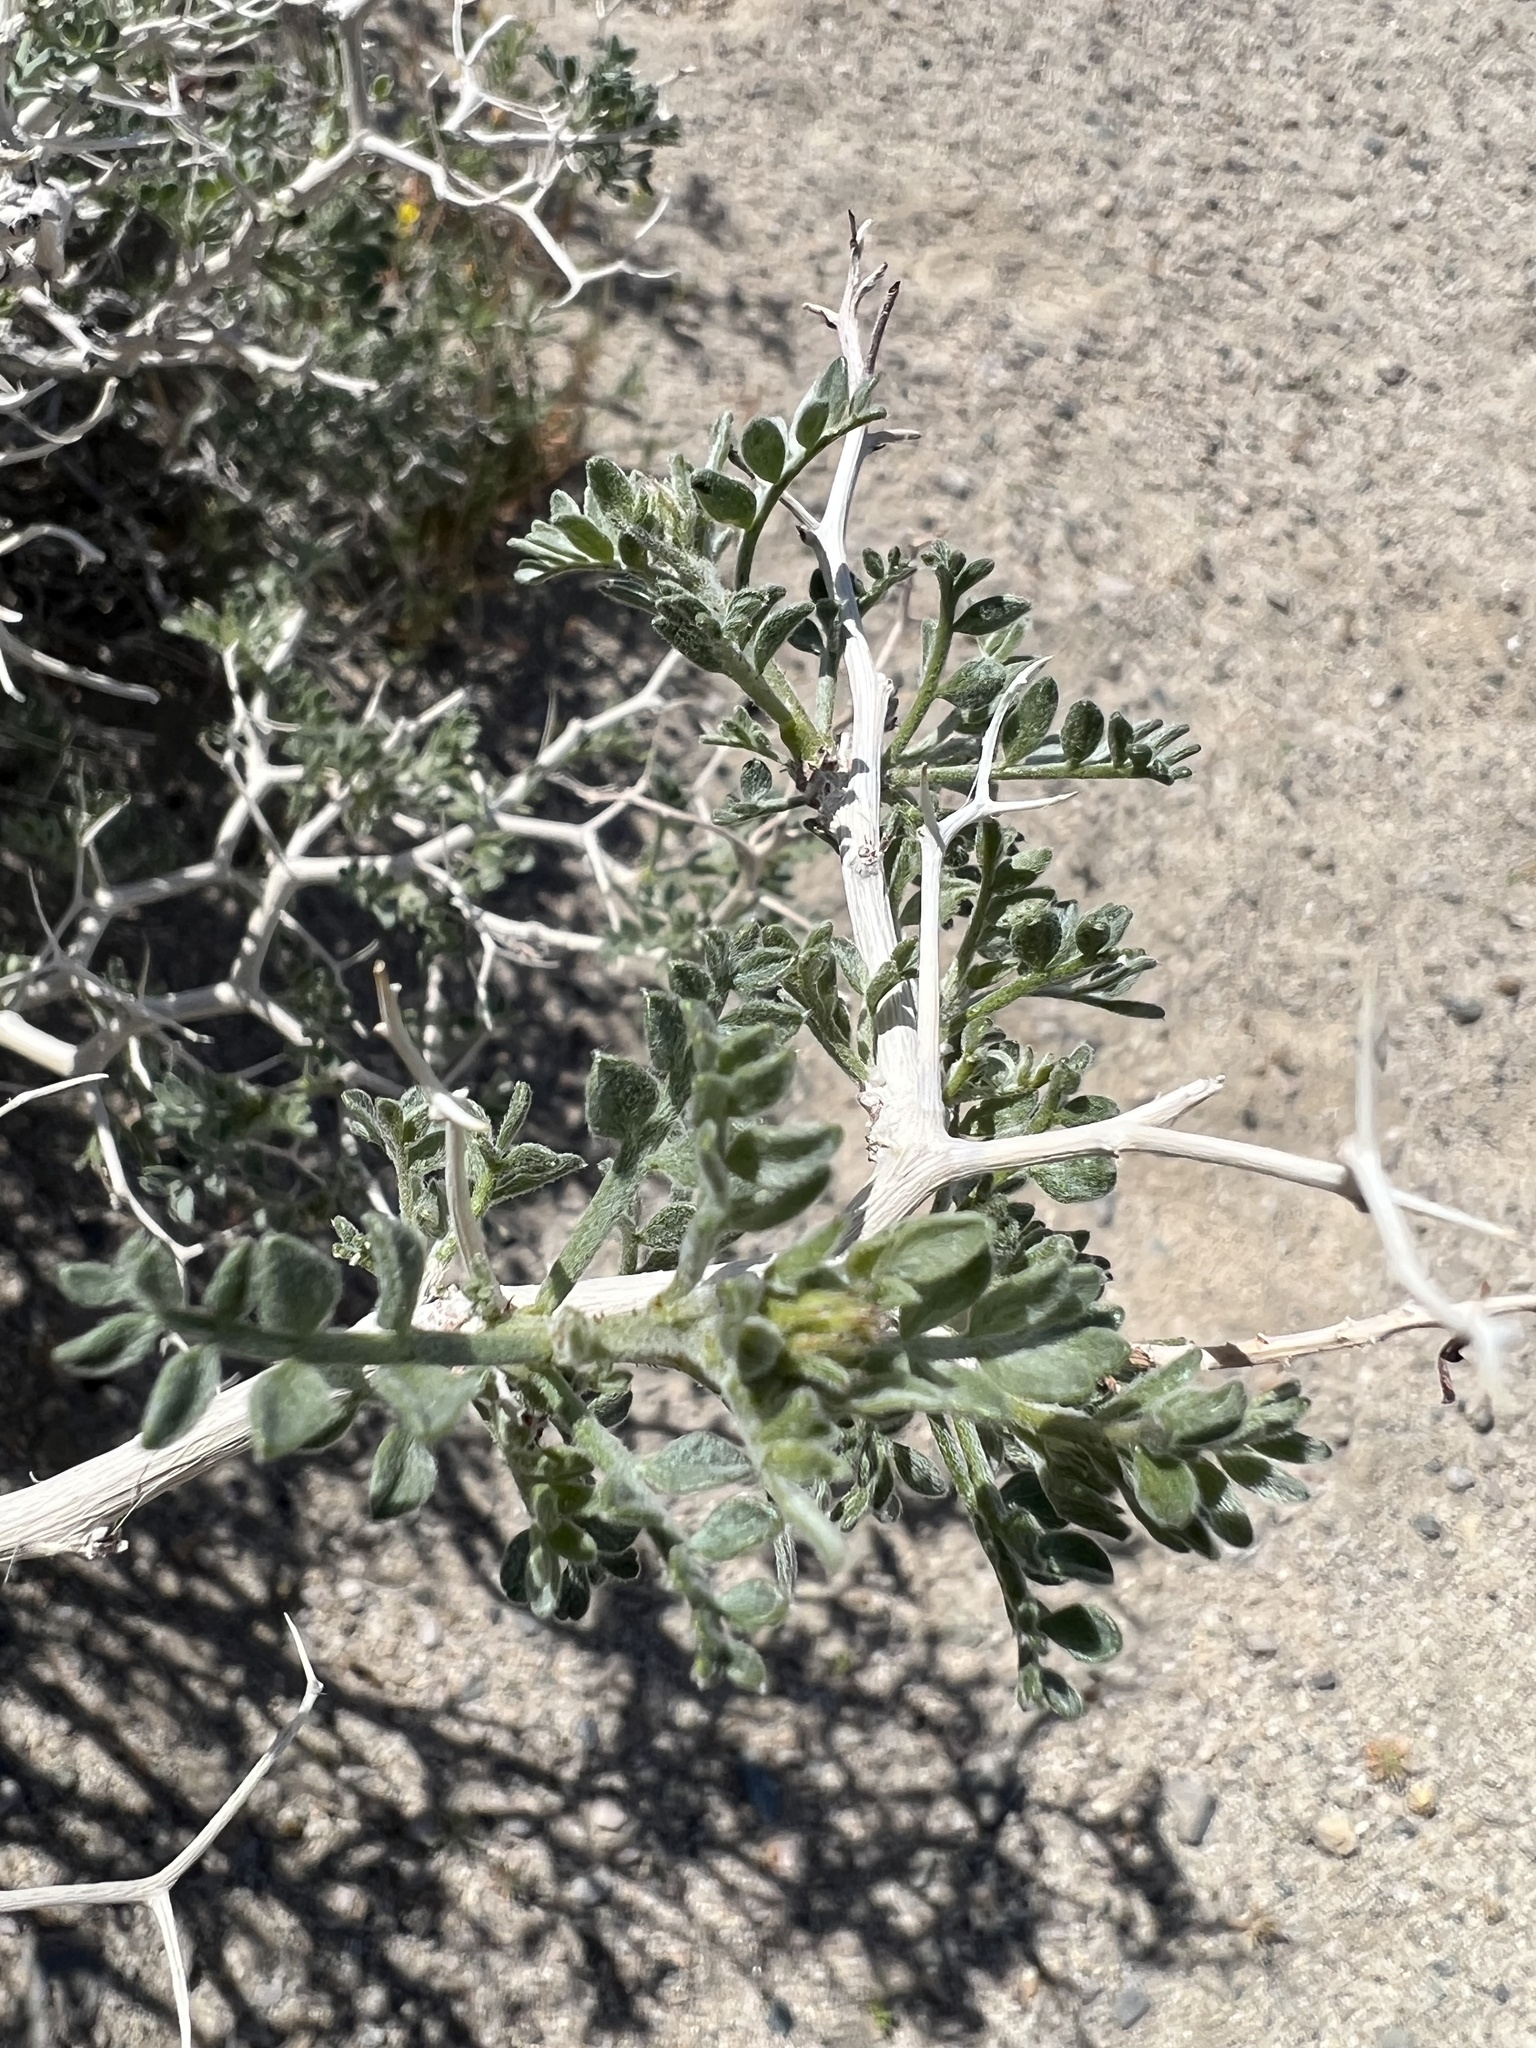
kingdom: Plantae
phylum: Tracheophyta
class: Magnoliopsida
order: Fabales
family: Fabaceae
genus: Psorothamnus
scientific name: Psorothamnus arborescens
